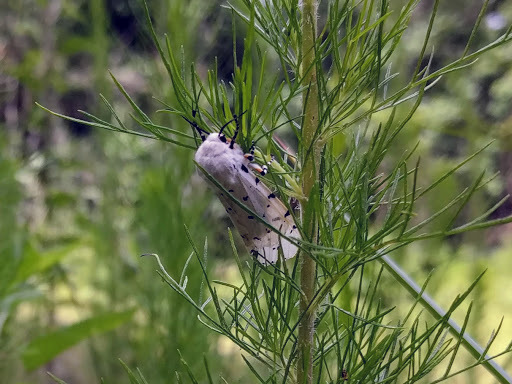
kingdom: Animalia
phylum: Arthropoda
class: Insecta
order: Lepidoptera
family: Erebidae
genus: Estigmene
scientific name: Estigmene acrea
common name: Salt marsh moth
